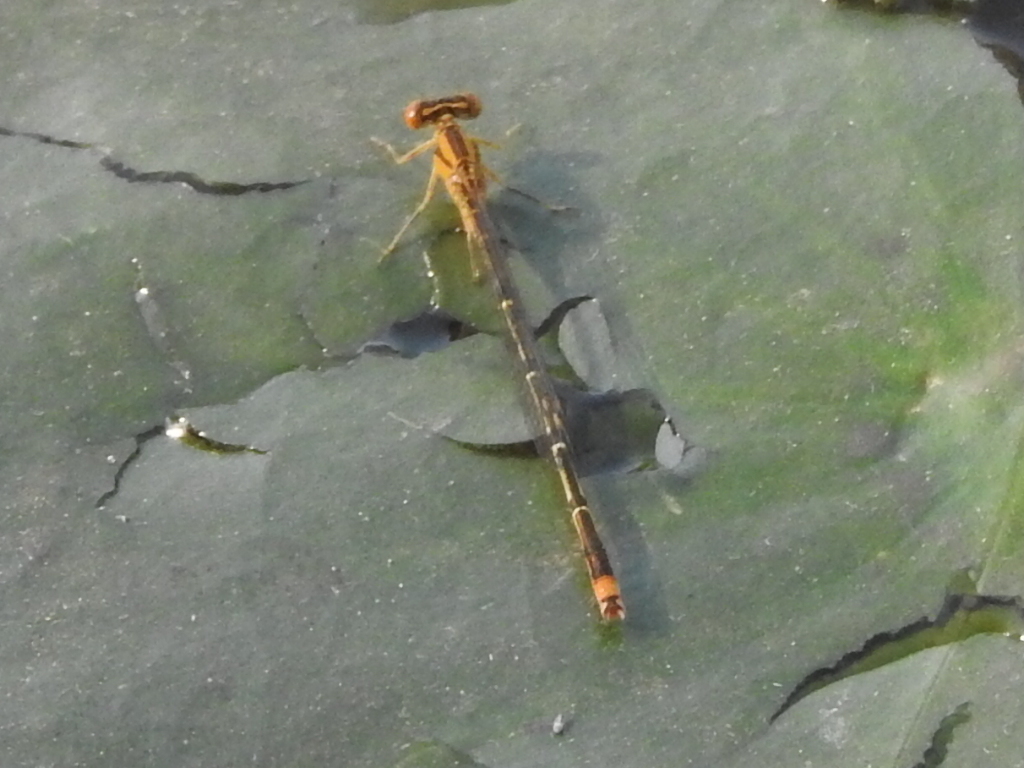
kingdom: Animalia
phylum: Arthropoda
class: Insecta
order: Odonata
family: Coenagrionidae
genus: Enallagma
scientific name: Enallagma signatum
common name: Orange bluet
